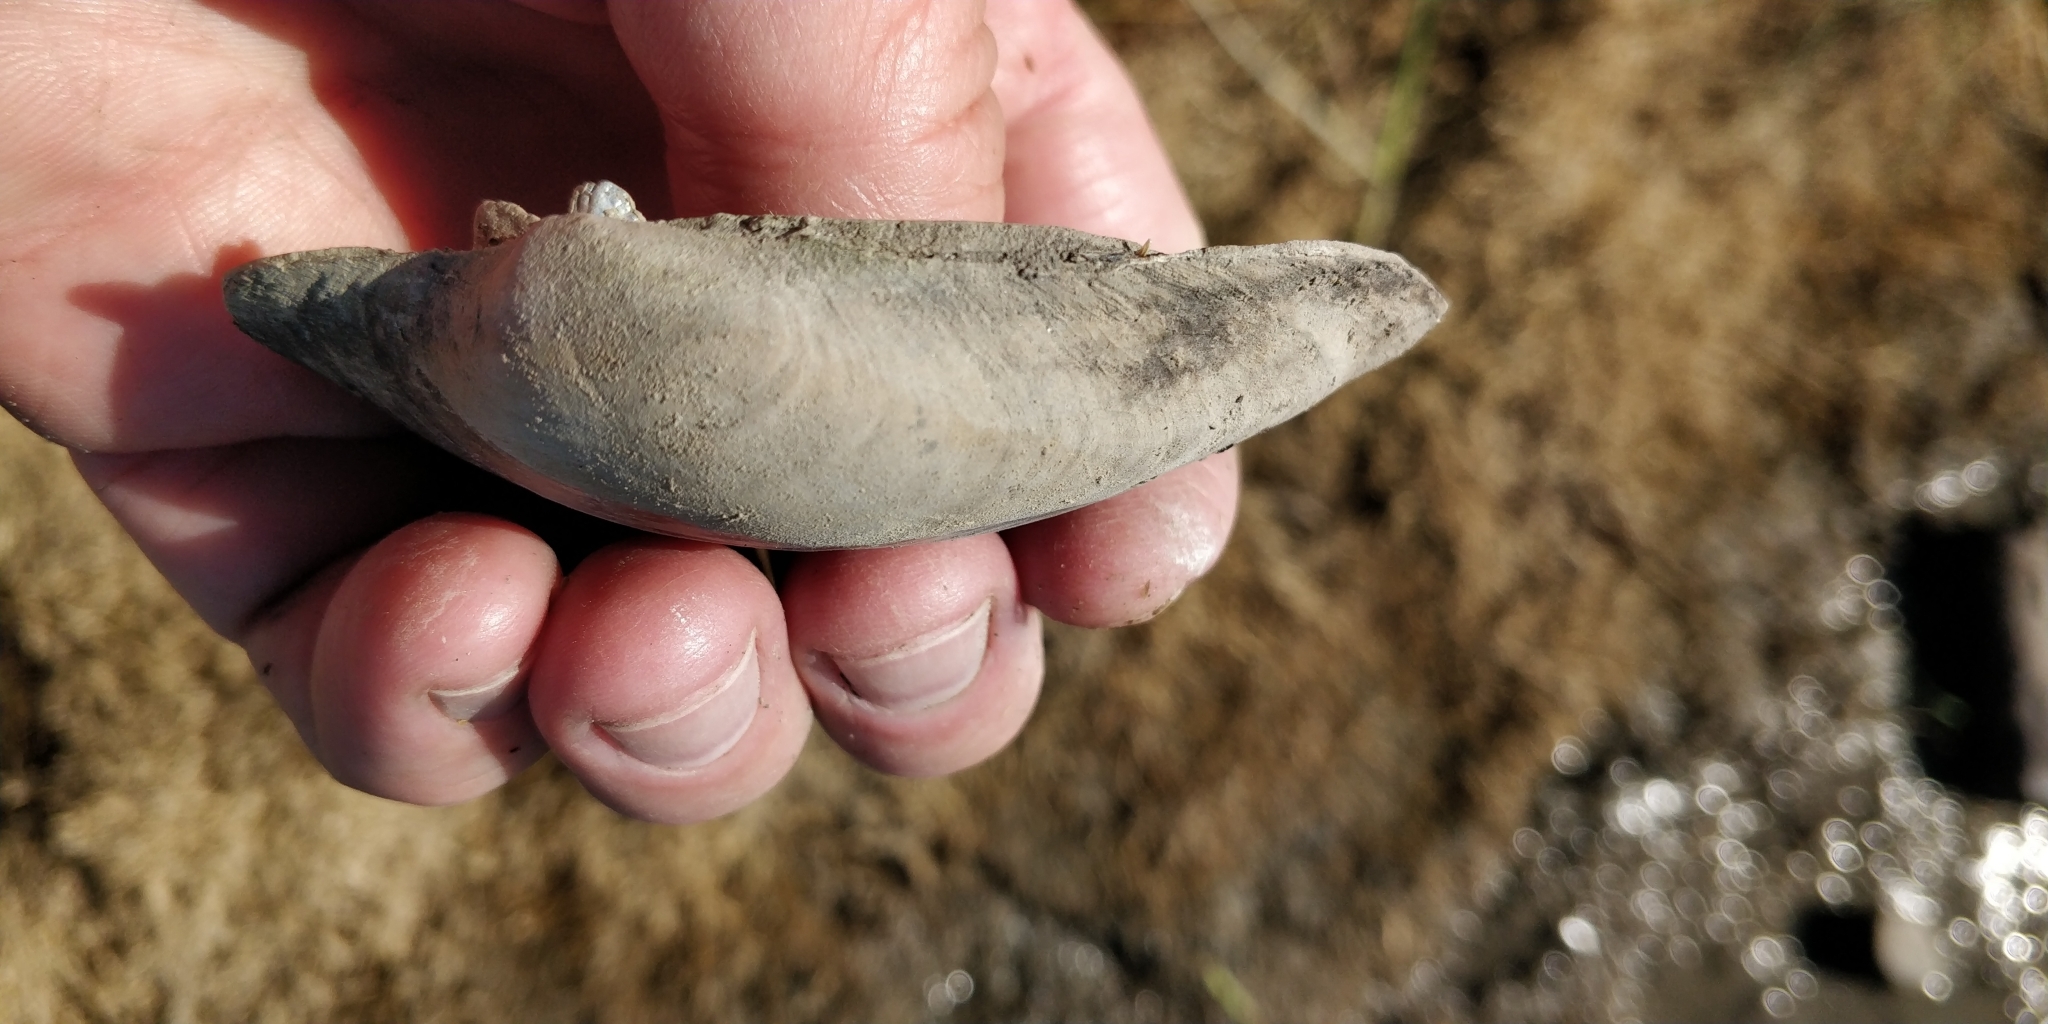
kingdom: Animalia
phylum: Mollusca
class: Bivalvia
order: Unionida
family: Unionidae
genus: Lampsilis
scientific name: Lampsilis cardium
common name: Plain pocketbook
